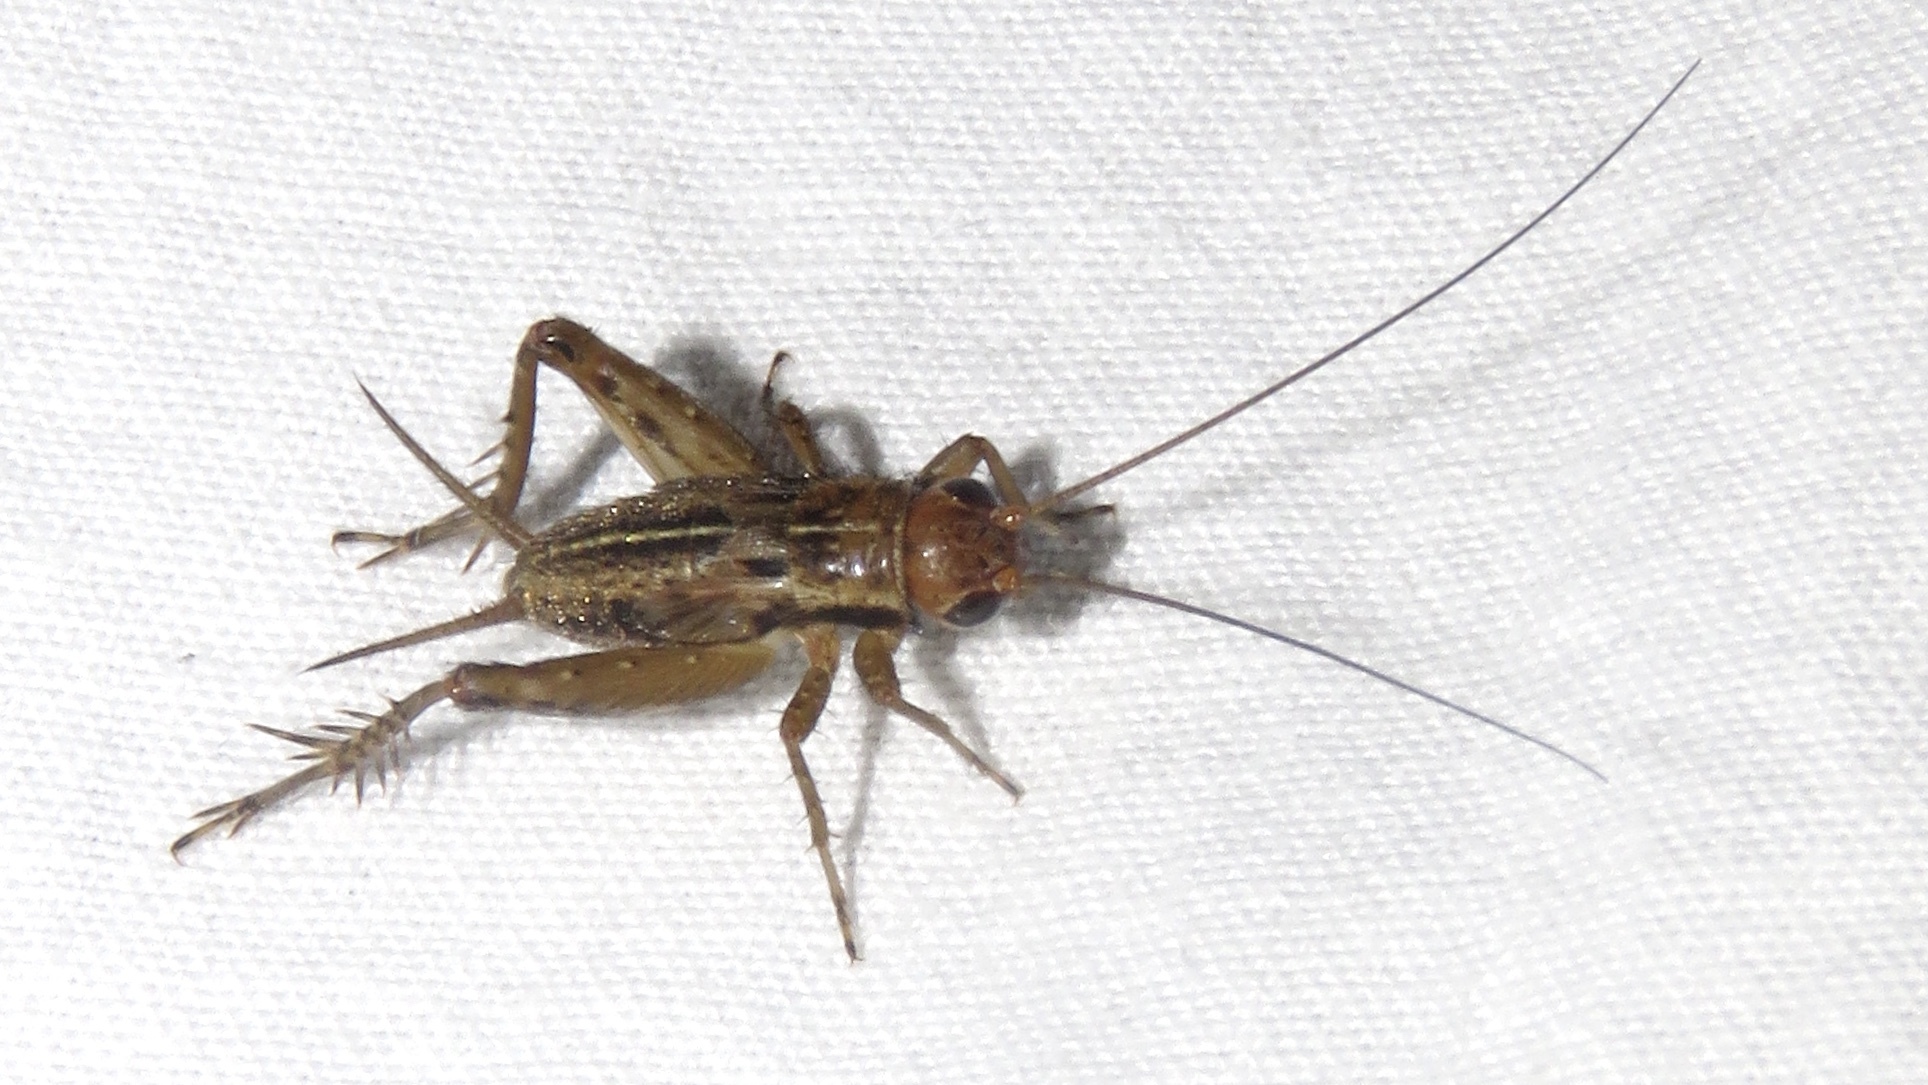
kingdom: Animalia
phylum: Arthropoda
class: Insecta
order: Orthoptera
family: Trigonidiidae
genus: Allonemobius
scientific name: Allonemobius fasciatus
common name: Striped ground cricket
